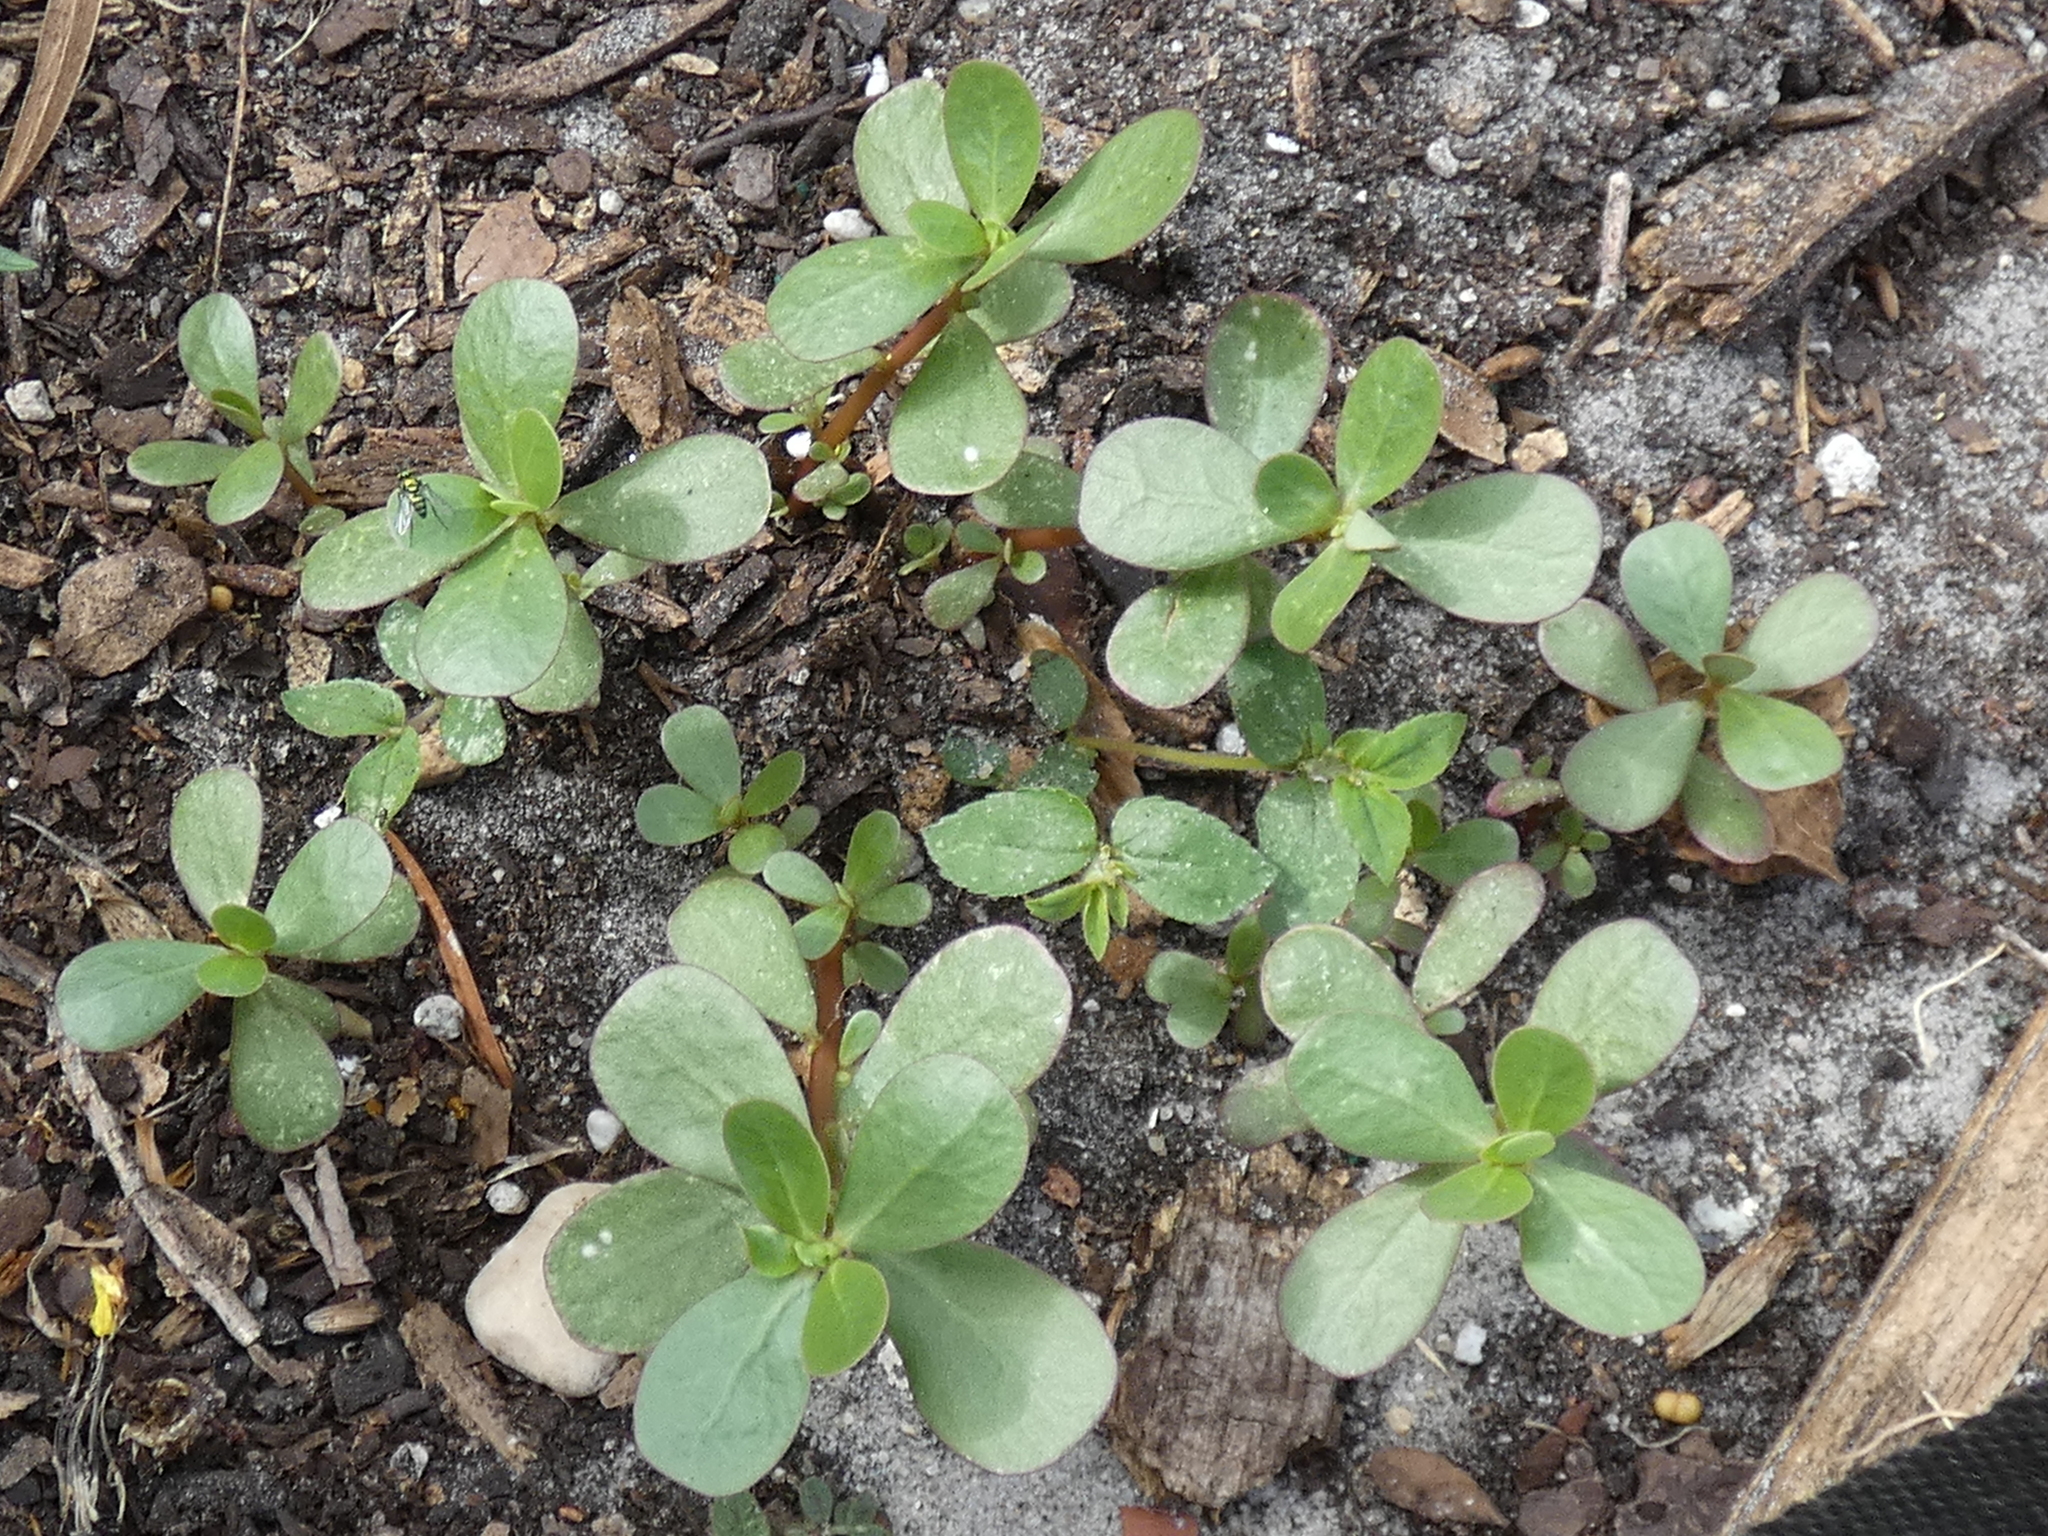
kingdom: Plantae
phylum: Tracheophyta
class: Magnoliopsida
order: Caryophyllales
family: Portulacaceae
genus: Portulaca
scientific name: Portulaca oleracea
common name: Common purslane
